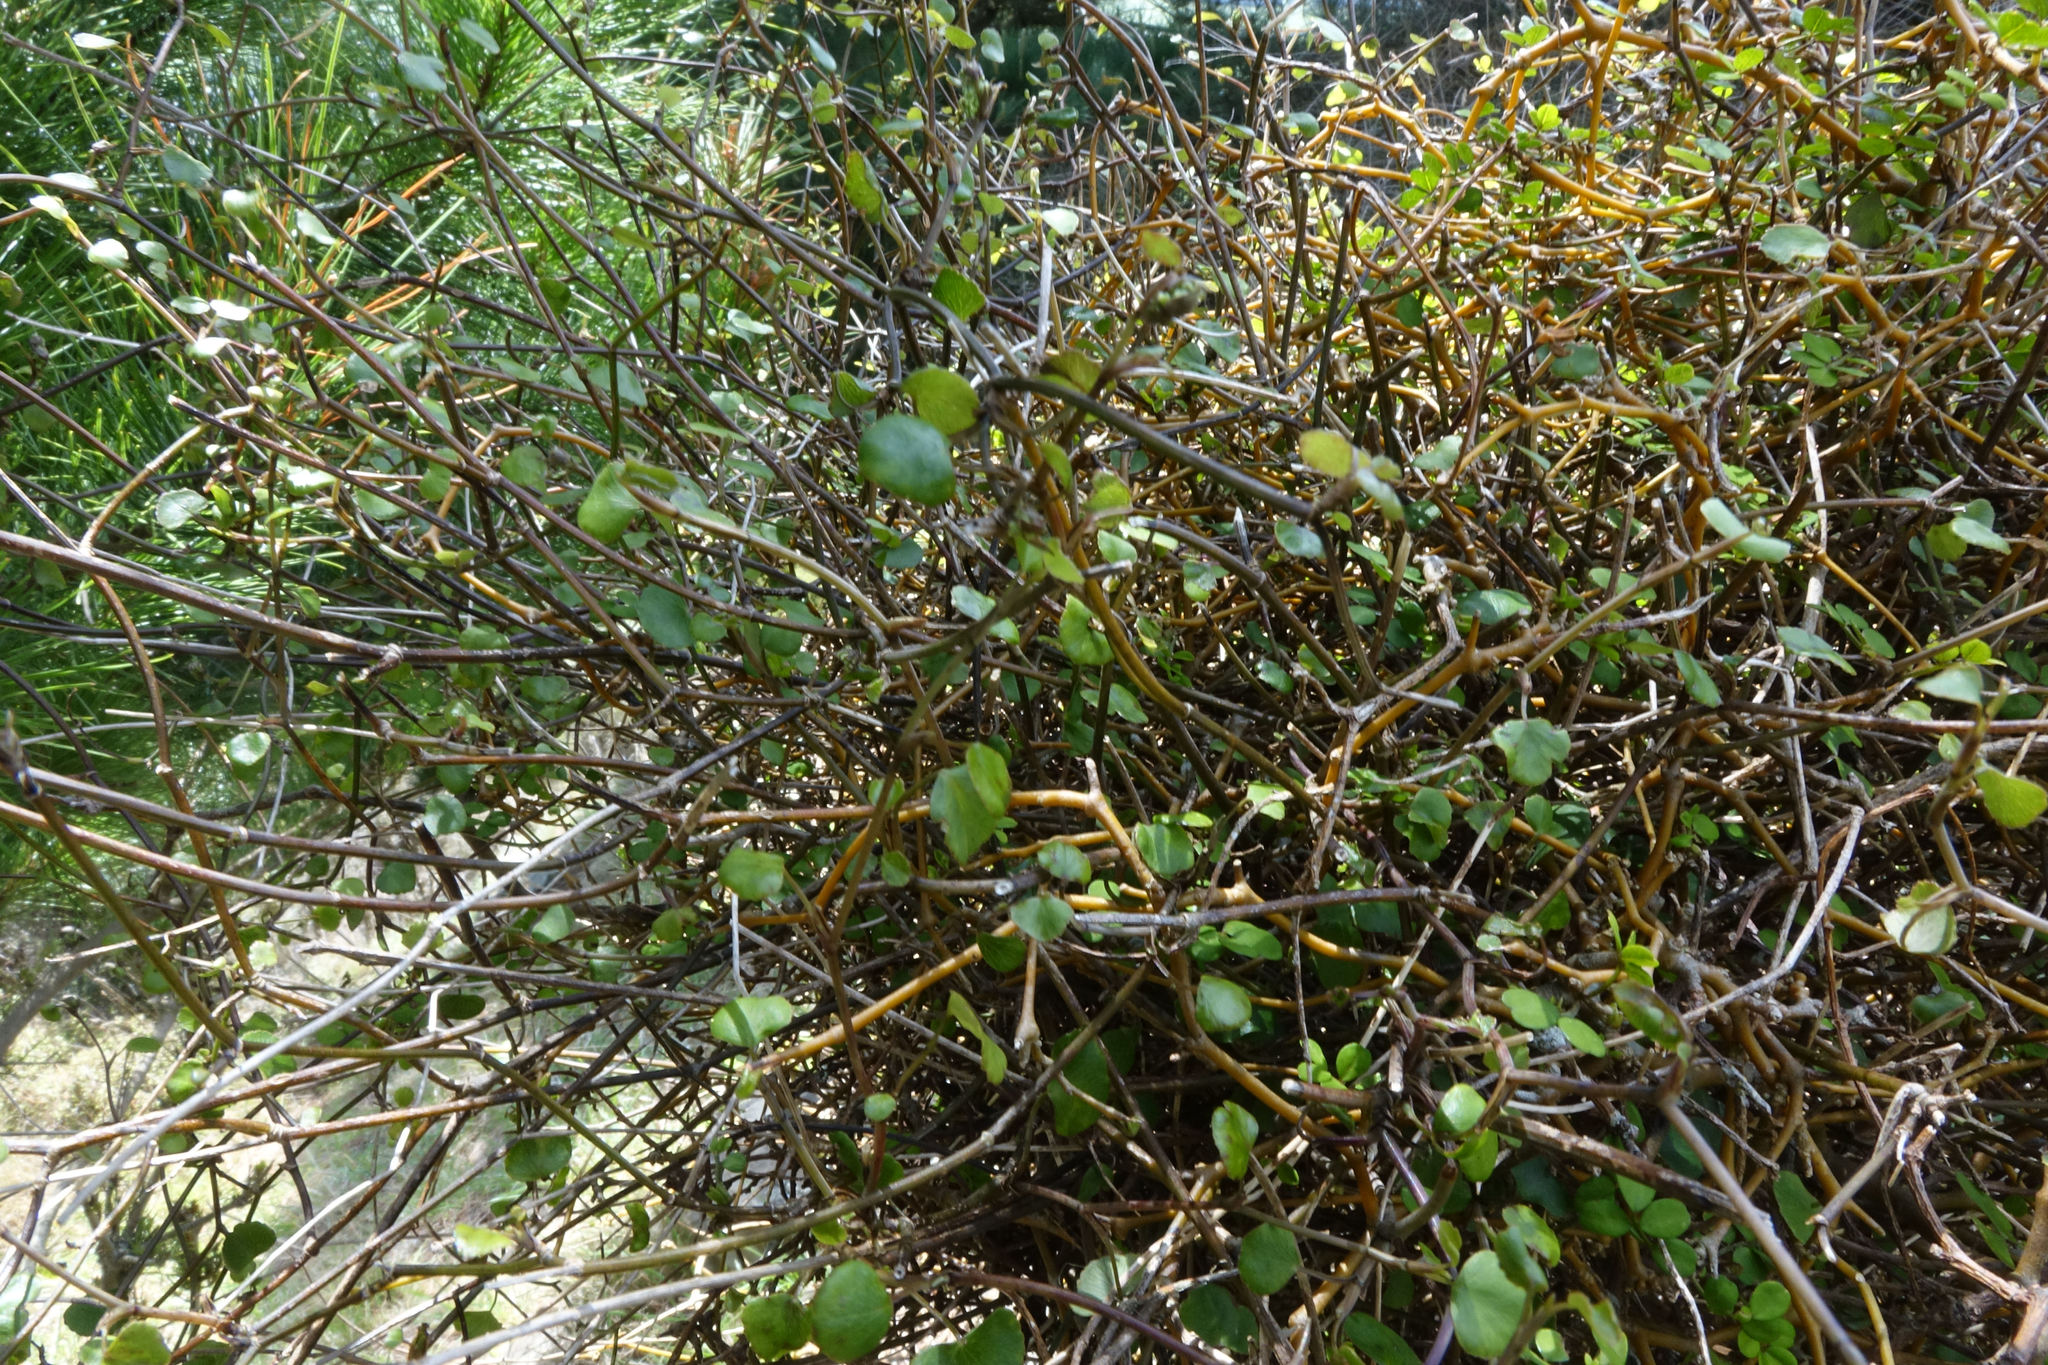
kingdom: Plantae
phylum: Tracheophyta
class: Magnoliopsida
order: Apiales
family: Apiaceae
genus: Scandia
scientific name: Scandia geniculata
